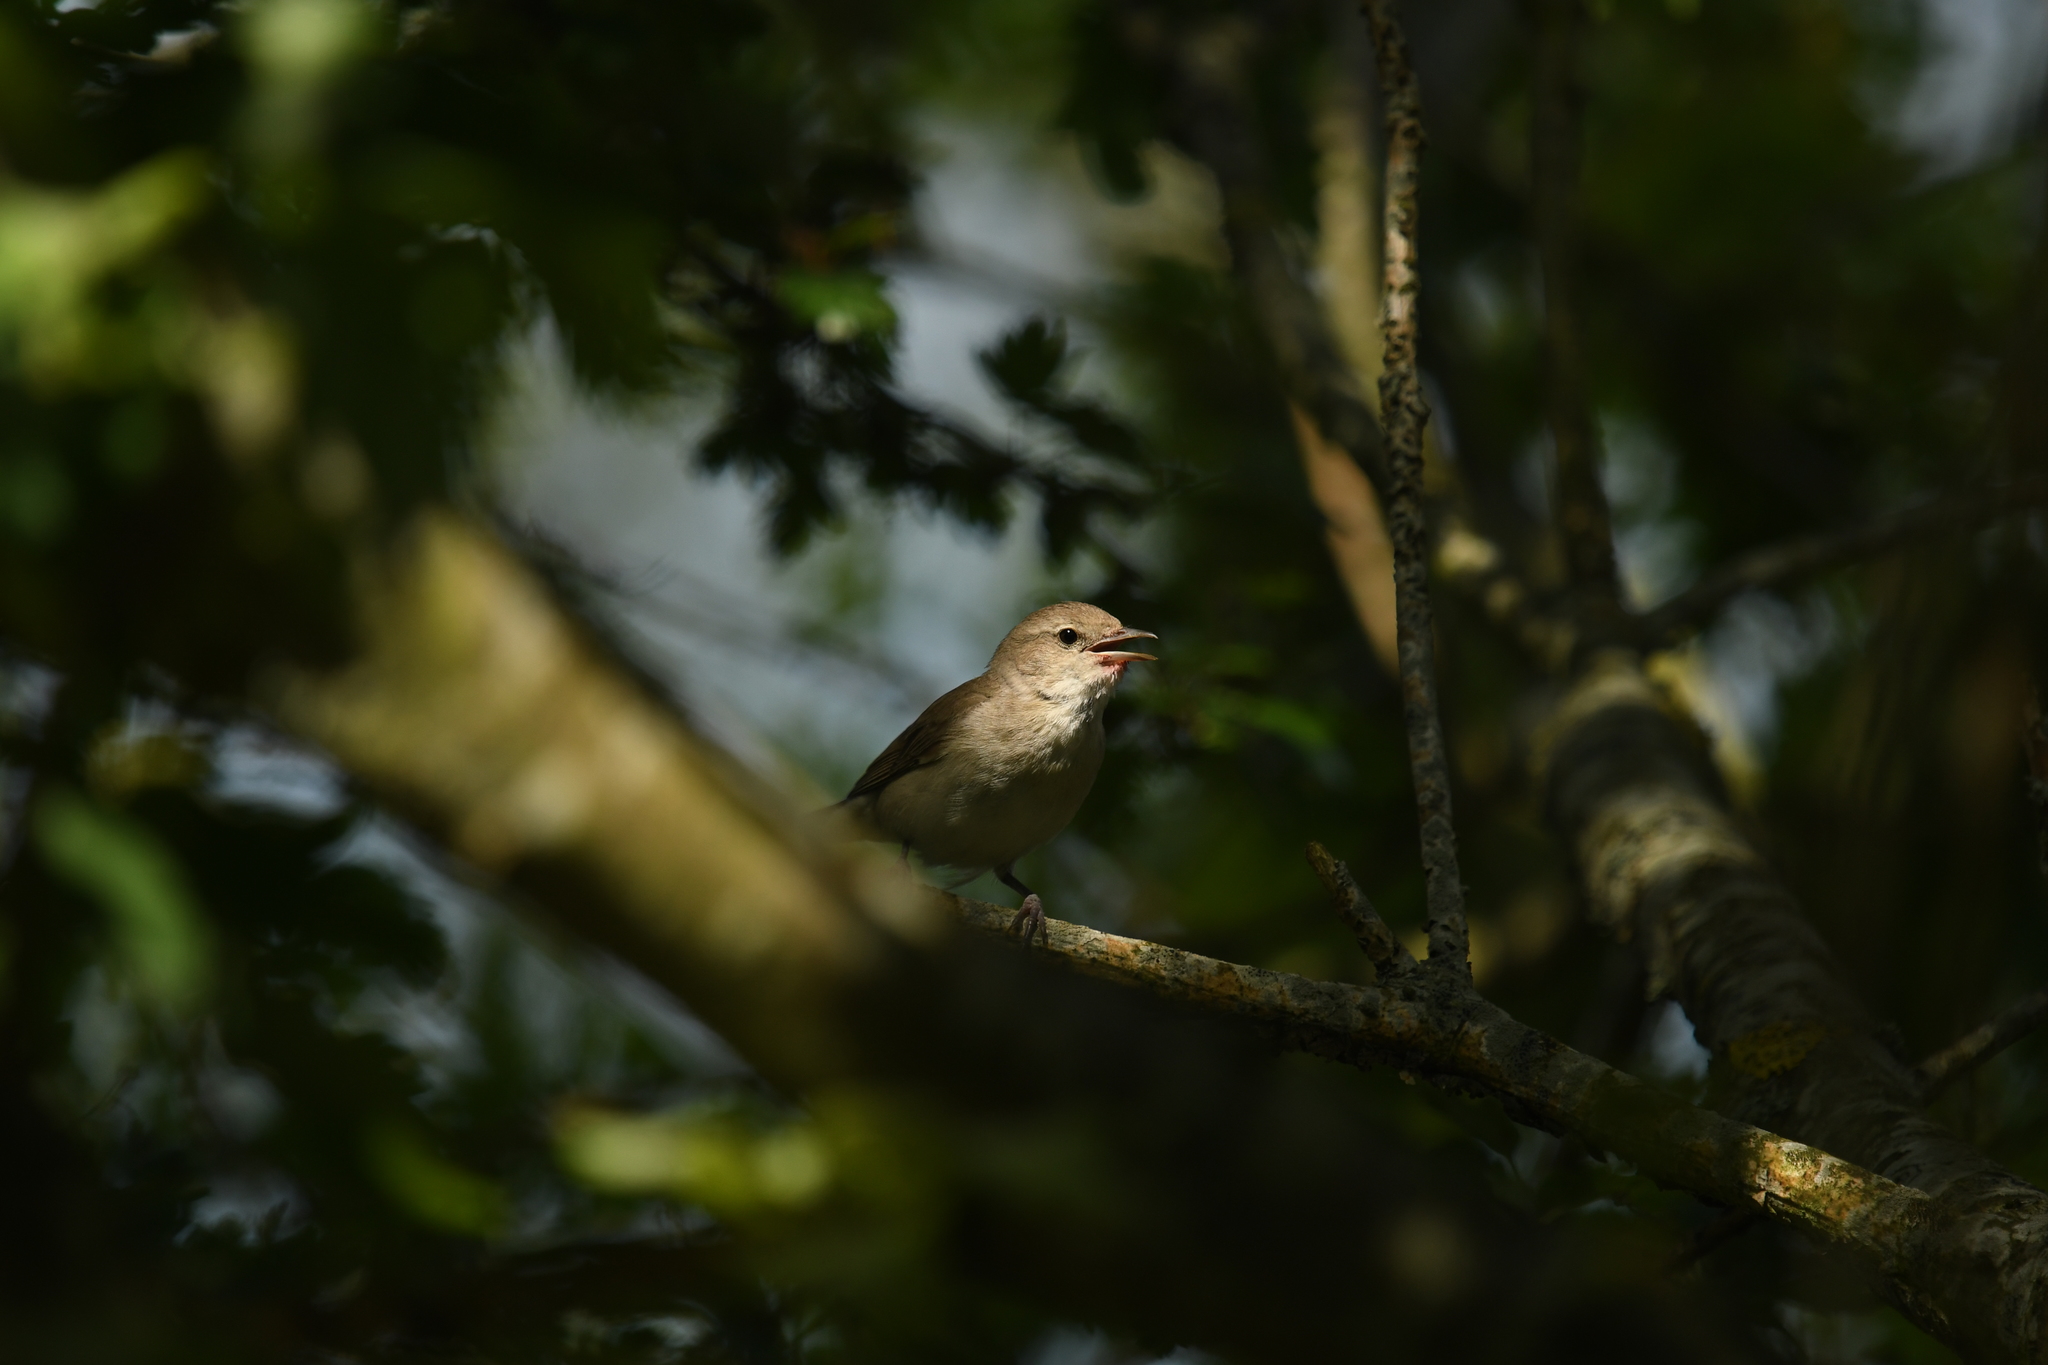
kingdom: Animalia
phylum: Chordata
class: Aves
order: Passeriformes
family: Sylviidae
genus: Sylvia
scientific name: Sylvia borin
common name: Garden warbler
